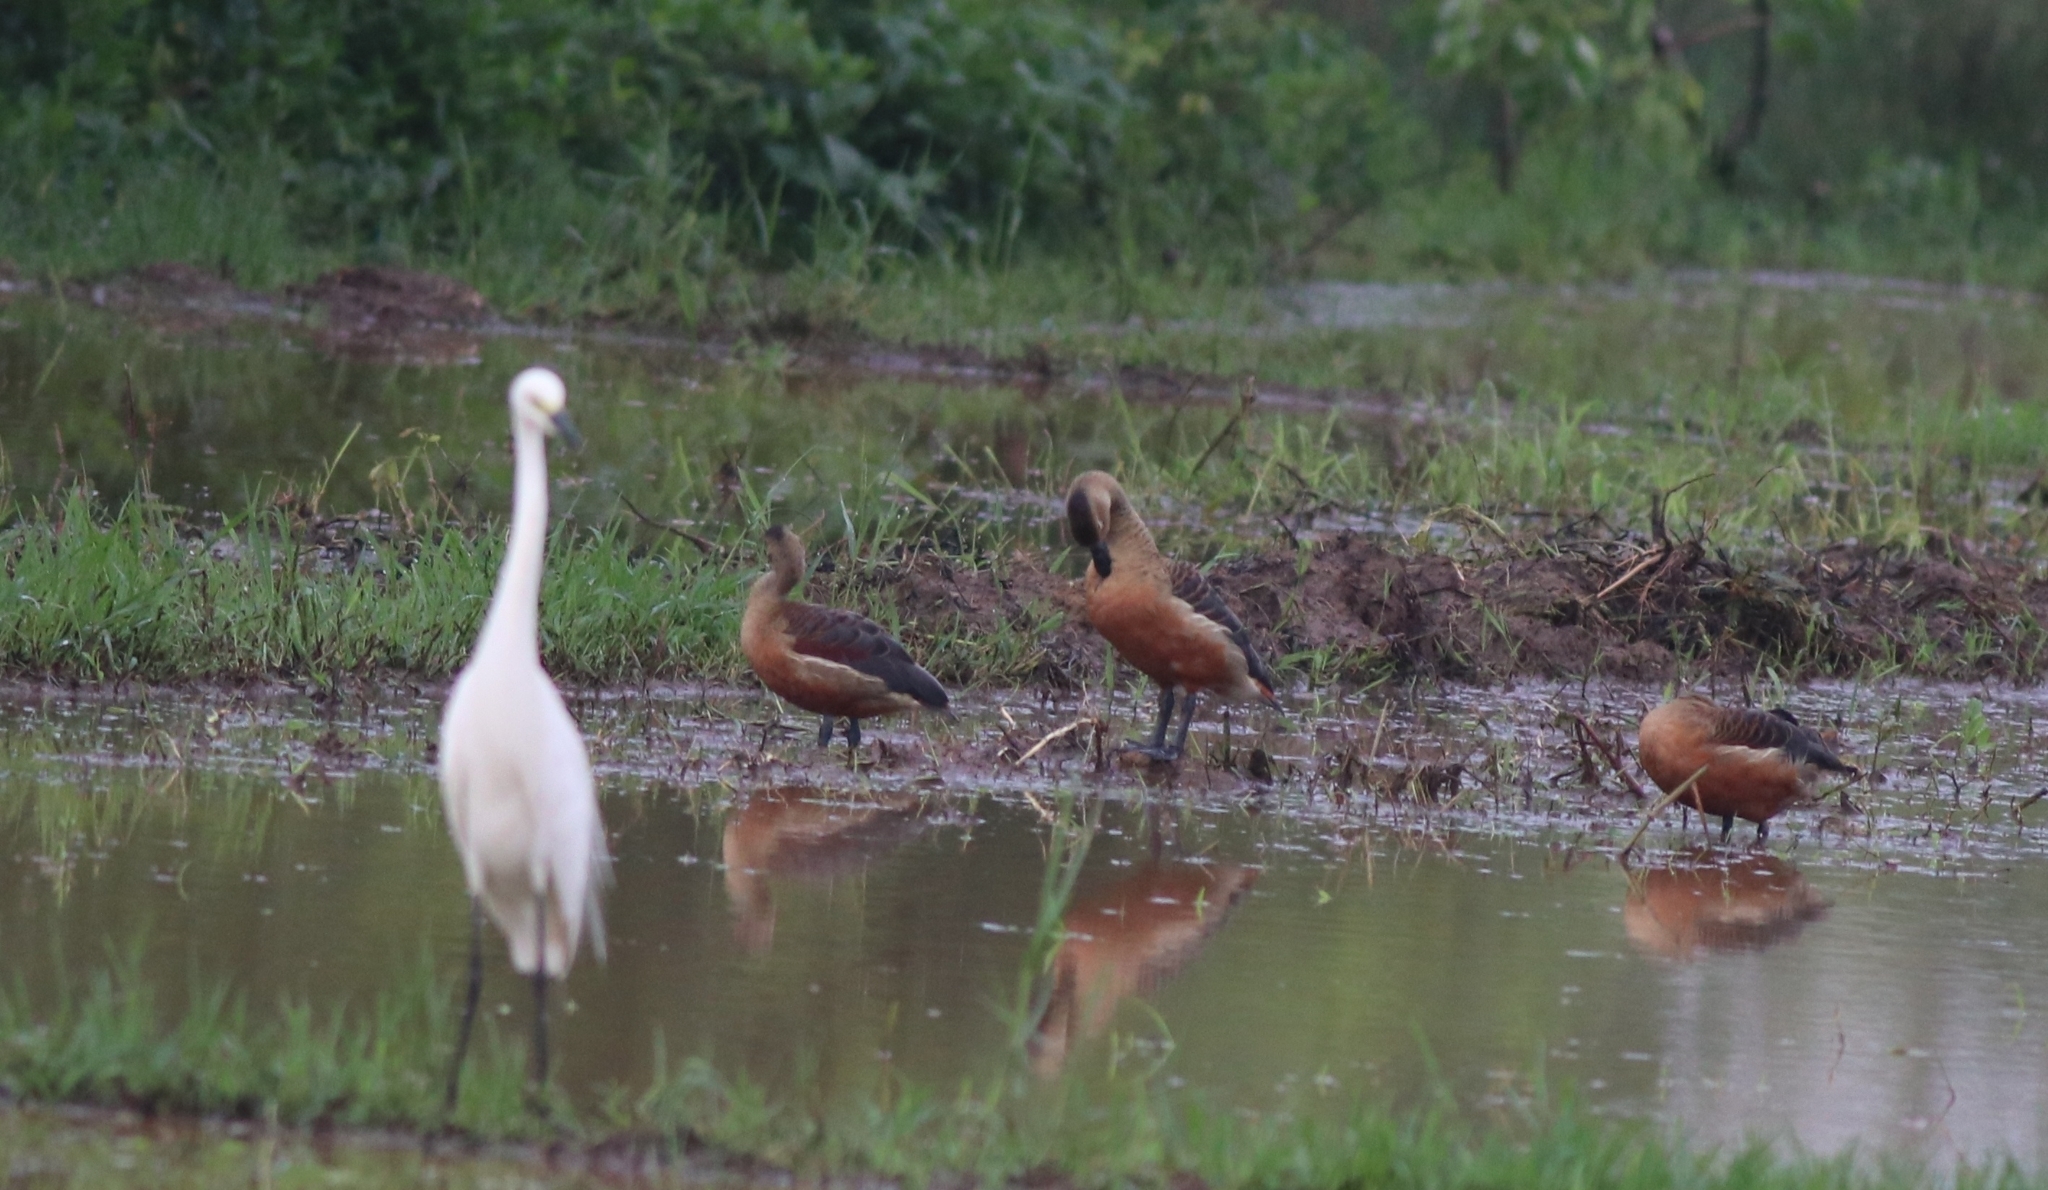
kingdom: Animalia
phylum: Chordata
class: Aves
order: Anseriformes
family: Anatidae
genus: Dendrocygna
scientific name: Dendrocygna javanica
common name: Lesser whistling-duck
